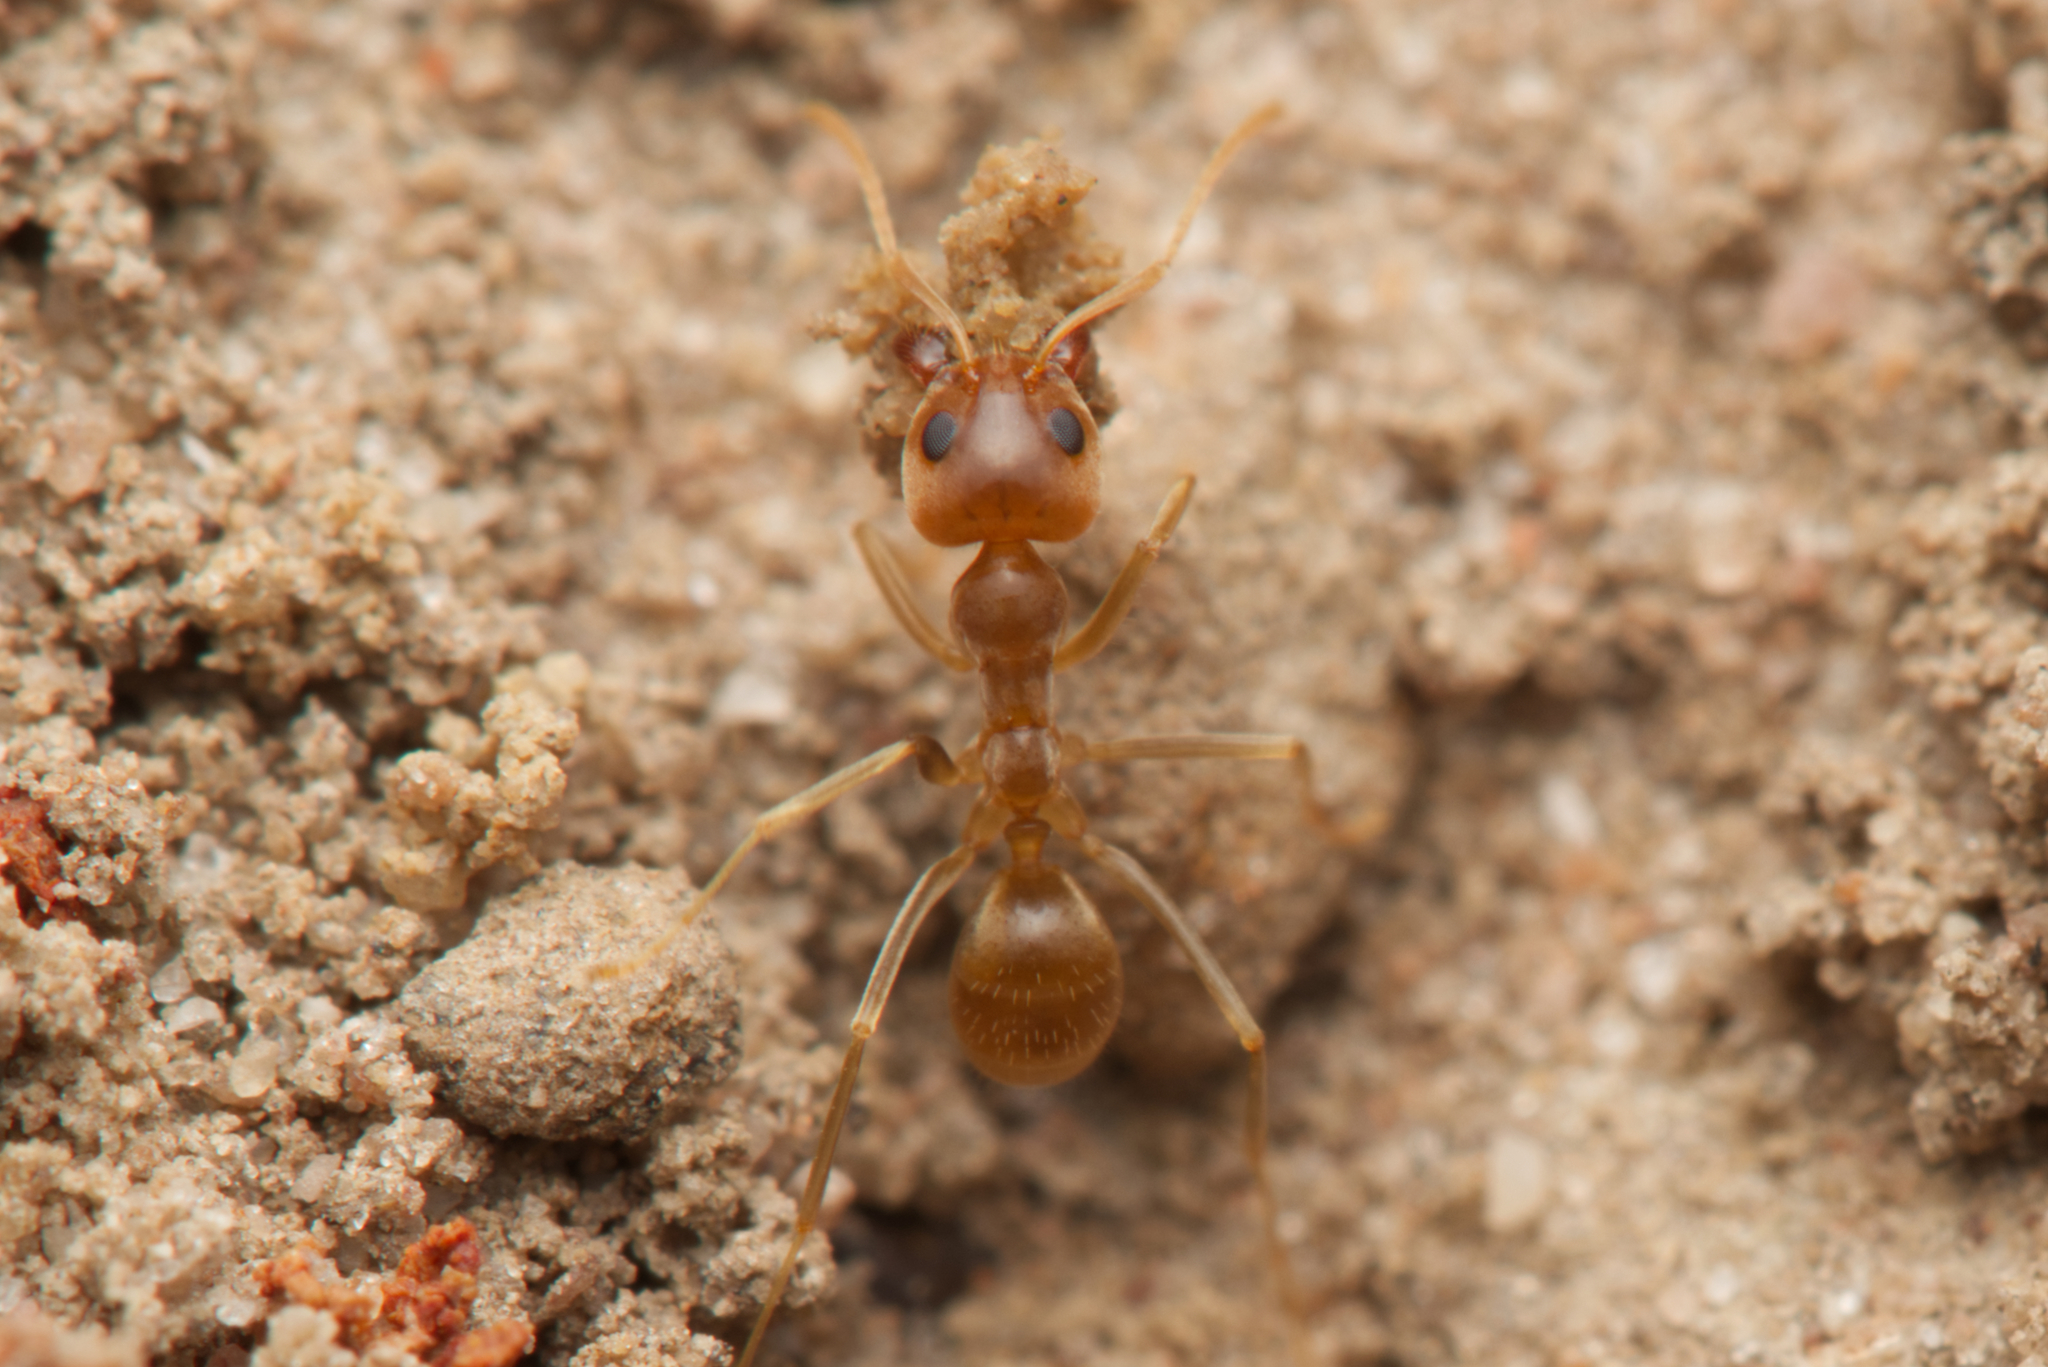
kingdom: Animalia
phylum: Arthropoda
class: Insecta
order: Hymenoptera
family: Formicidae
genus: Iridomyrmex
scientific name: Iridomyrmex pallidus
